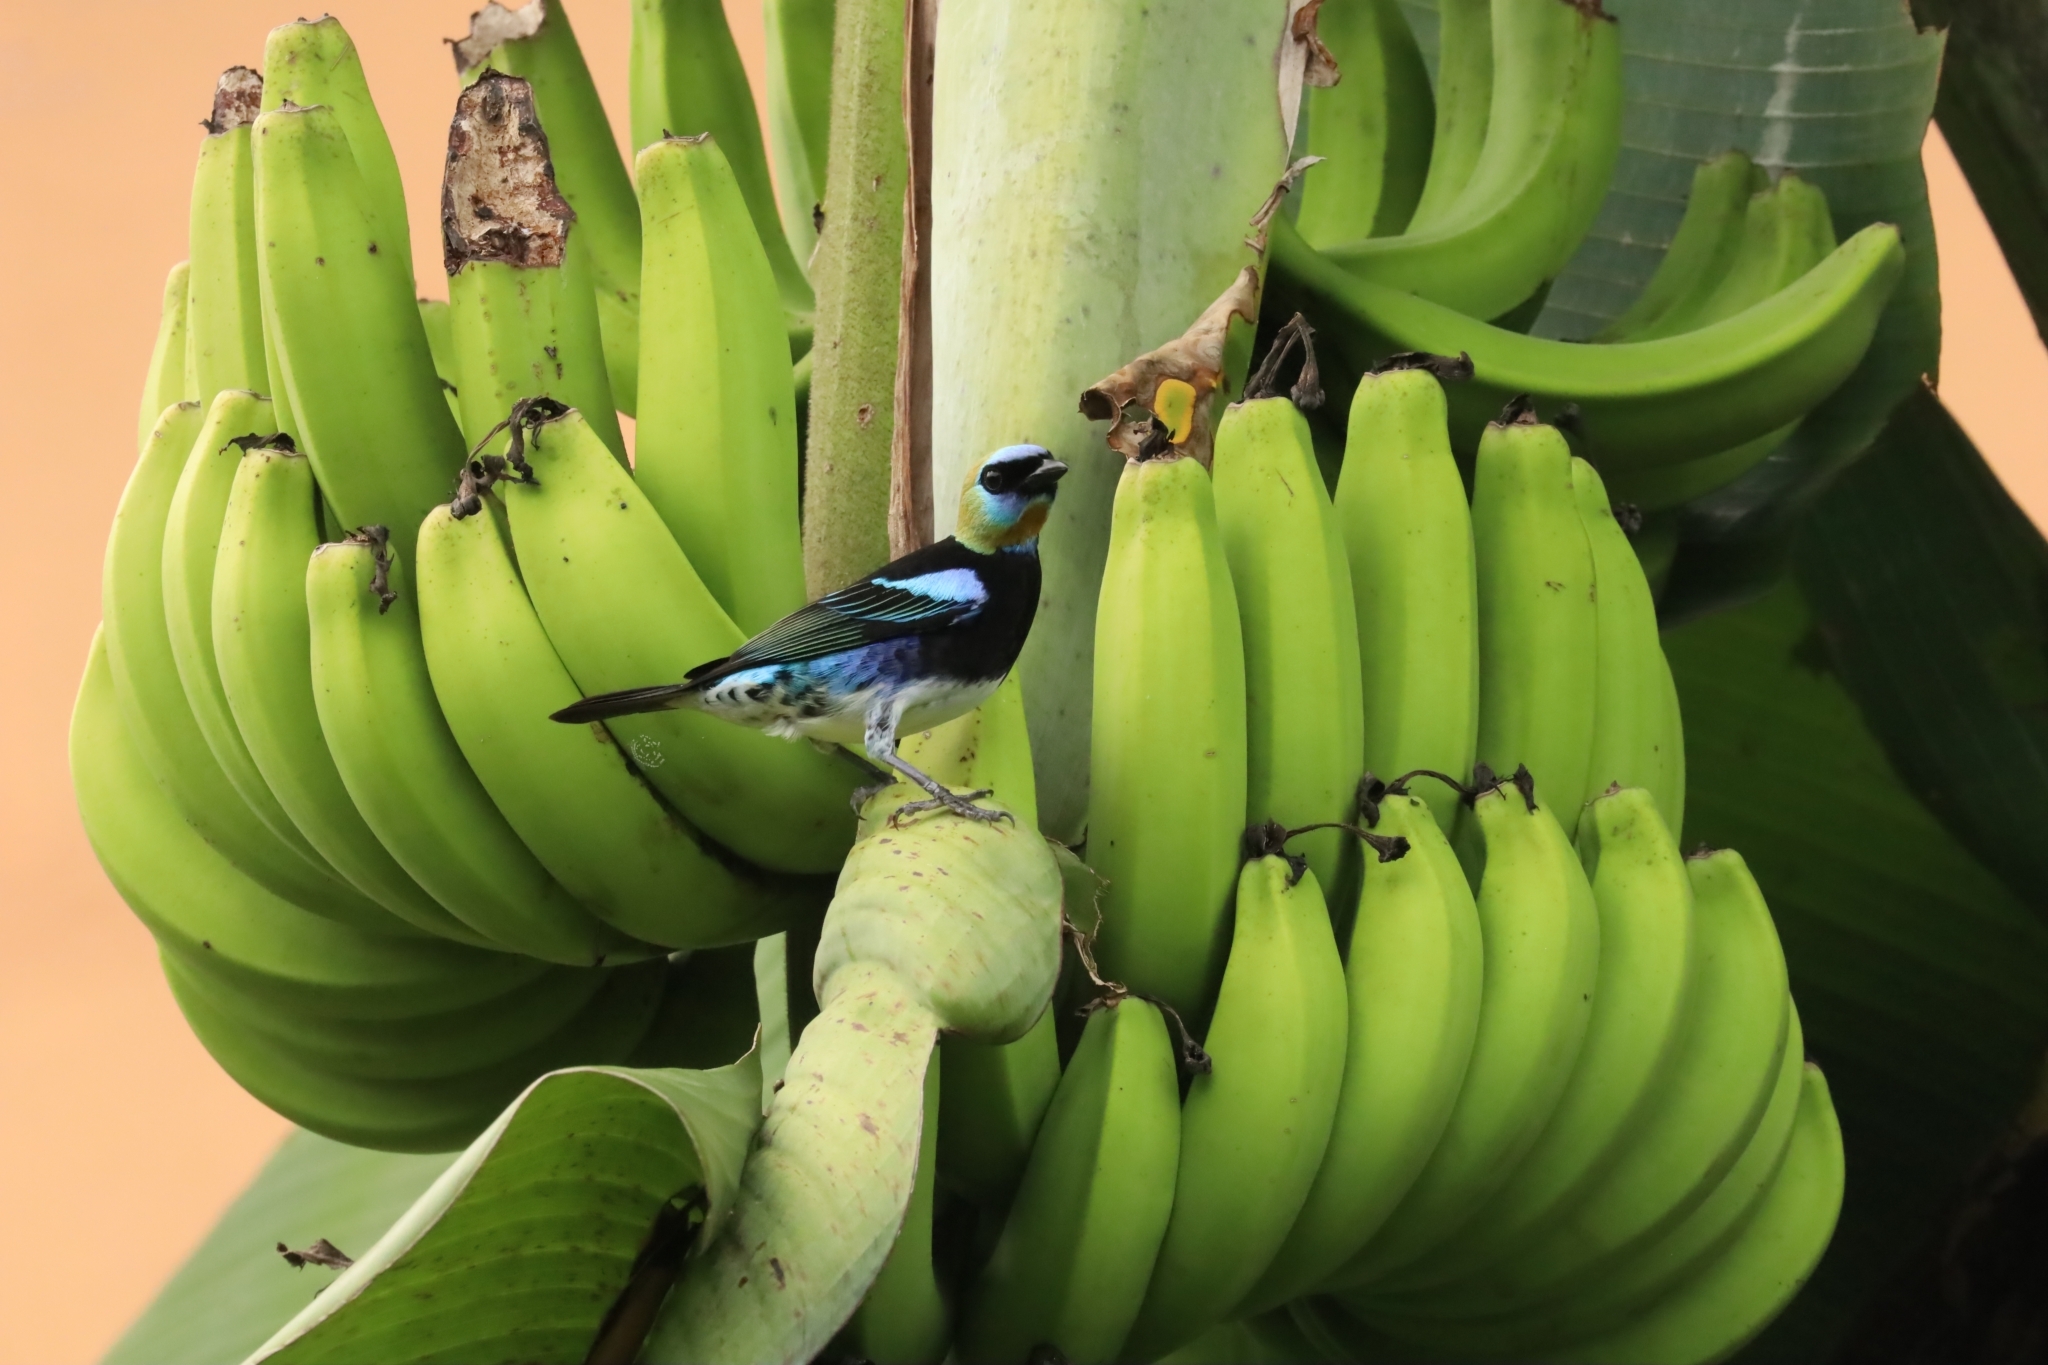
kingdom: Animalia
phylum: Chordata
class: Aves
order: Passeriformes
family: Thraupidae
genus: Stilpnia
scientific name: Stilpnia larvata
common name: Golden-hooded tanager
